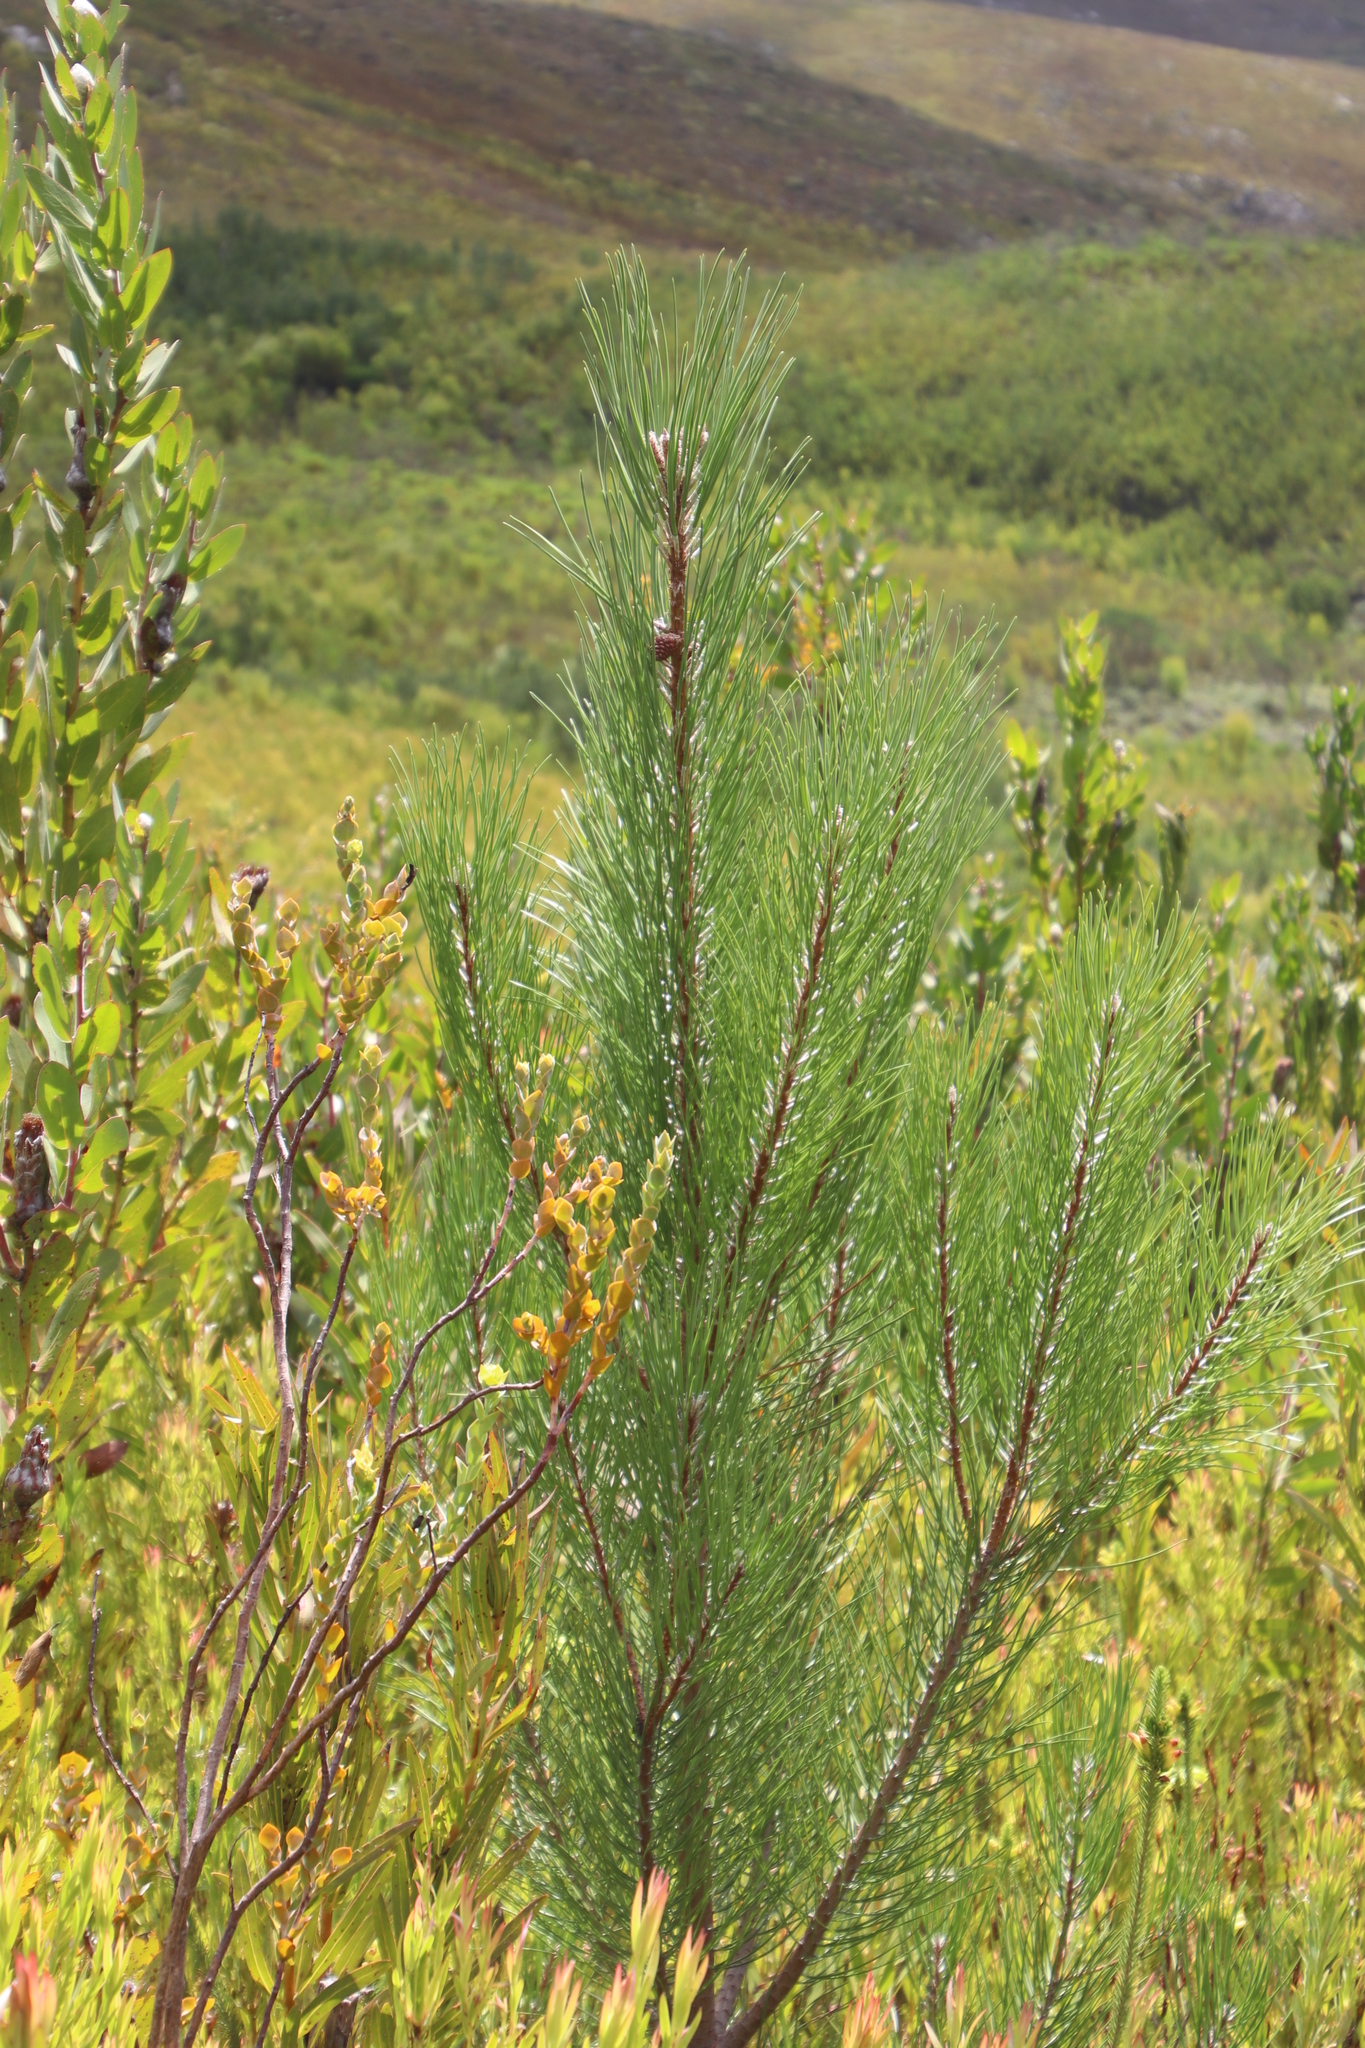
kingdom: Plantae
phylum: Tracheophyta
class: Pinopsida
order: Pinales
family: Pinaceae
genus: Pinus
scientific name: Pinus pinaster
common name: Maritime pine
